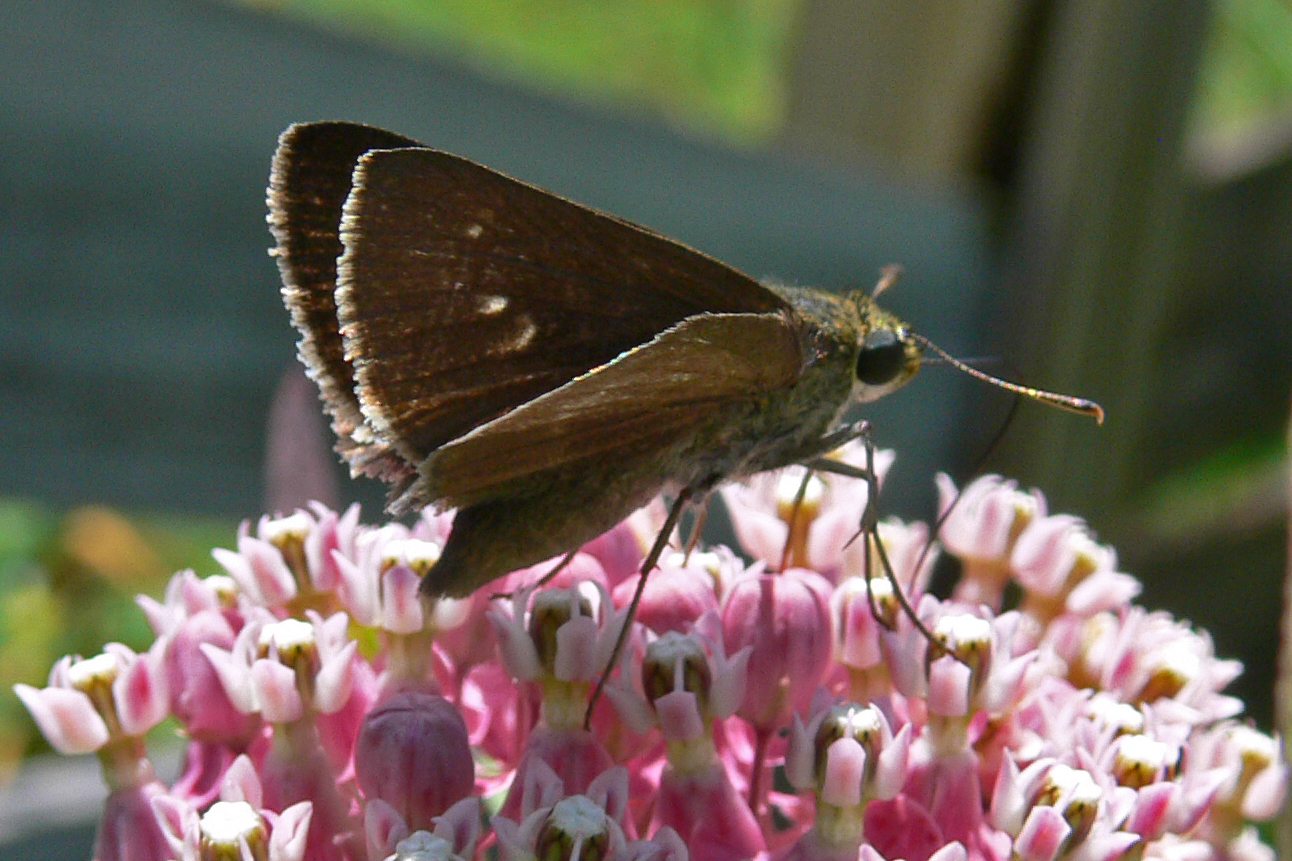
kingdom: Animalia
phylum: Arthropoda
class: Insecta
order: Lepidoptera
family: Hesperiidae
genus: Euphyes
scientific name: Euphyes vestris
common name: Dun skipper
